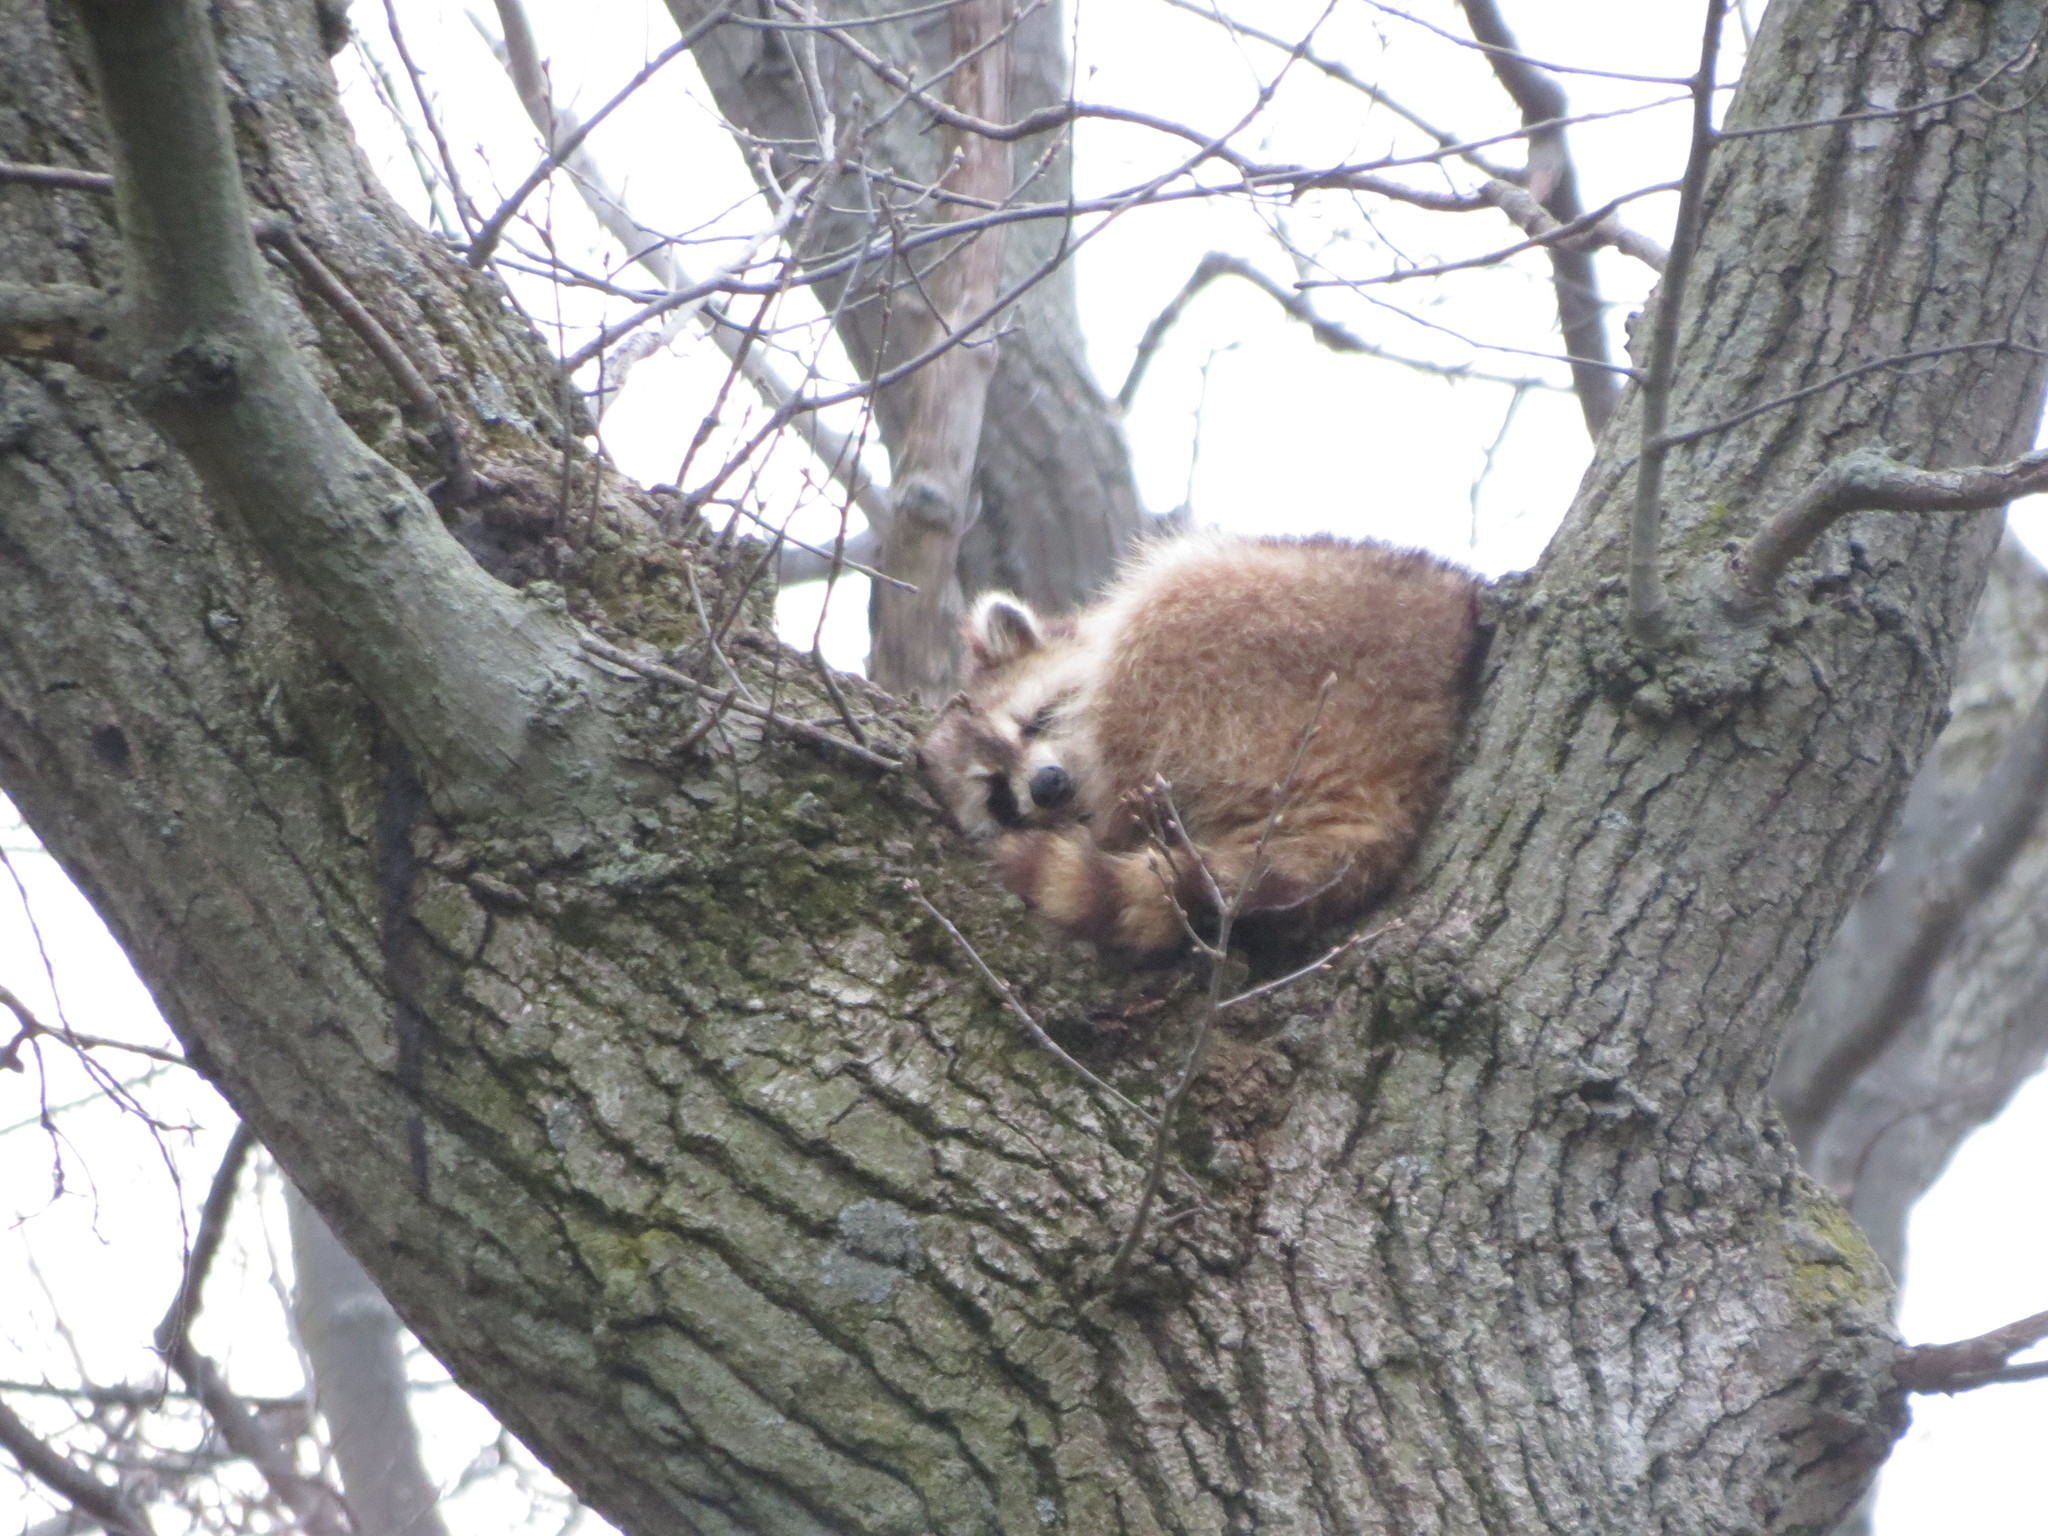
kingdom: Animalia
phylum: Chordata
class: Mammalia
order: Carnivora
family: Procyonidae
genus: Procyon
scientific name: Procyon lotor
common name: Raccoon
